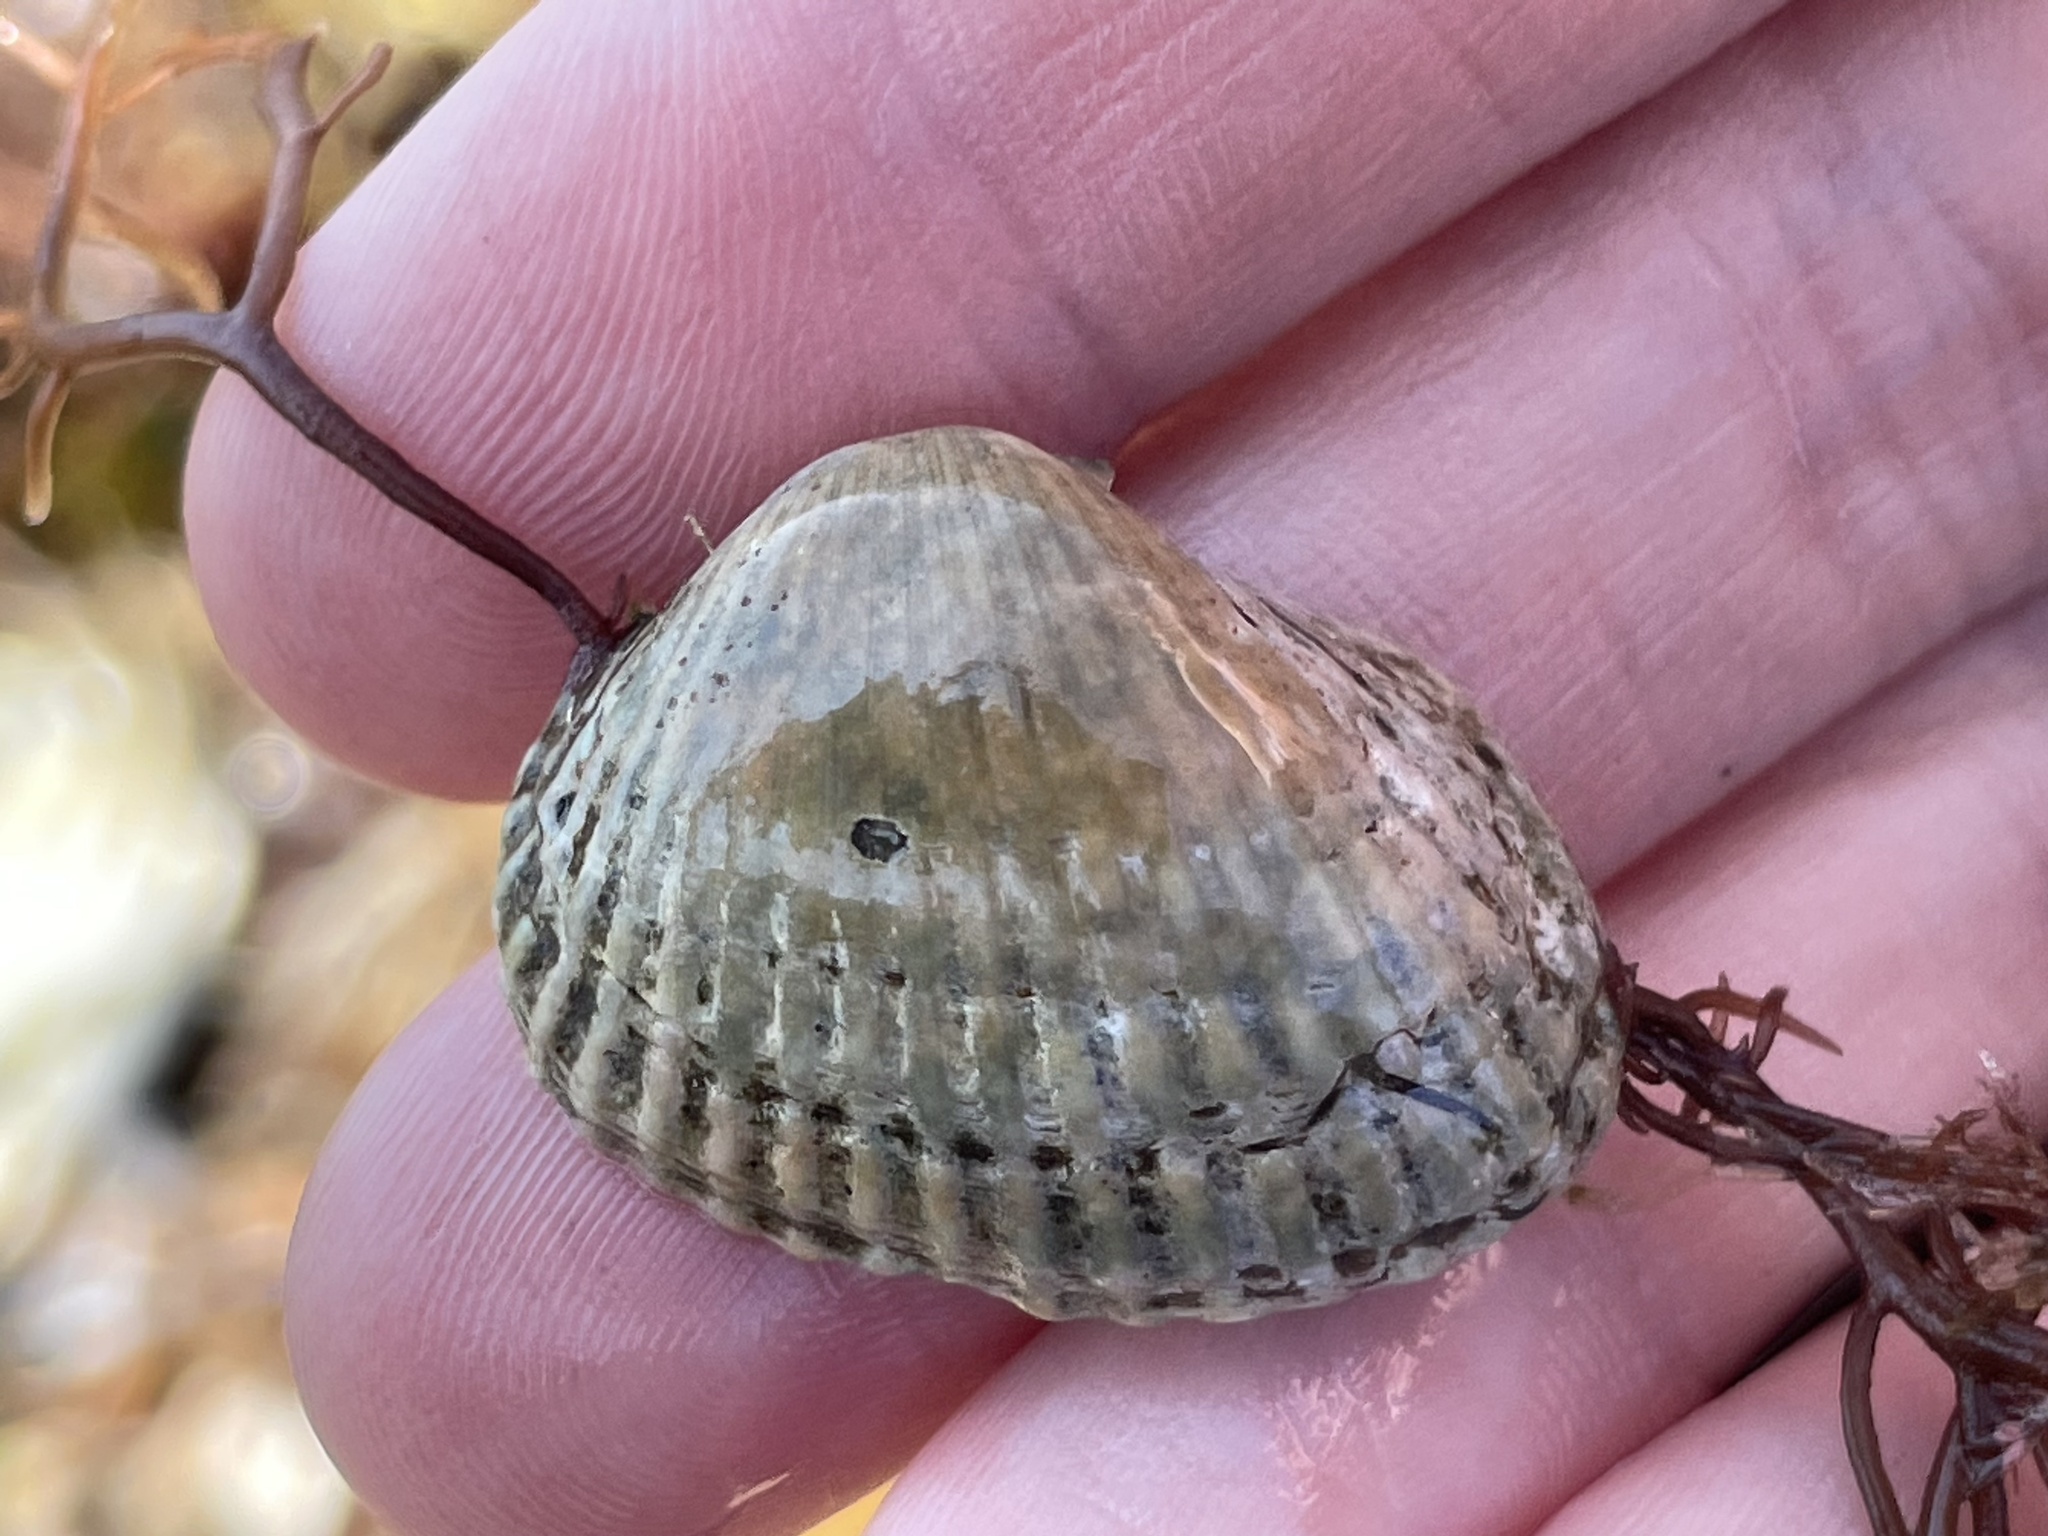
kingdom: Animalia
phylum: Mollusca
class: Bivalvia
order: Arcida
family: Arcidae
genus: Anadara
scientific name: Anadara transversa
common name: Transverse ark
